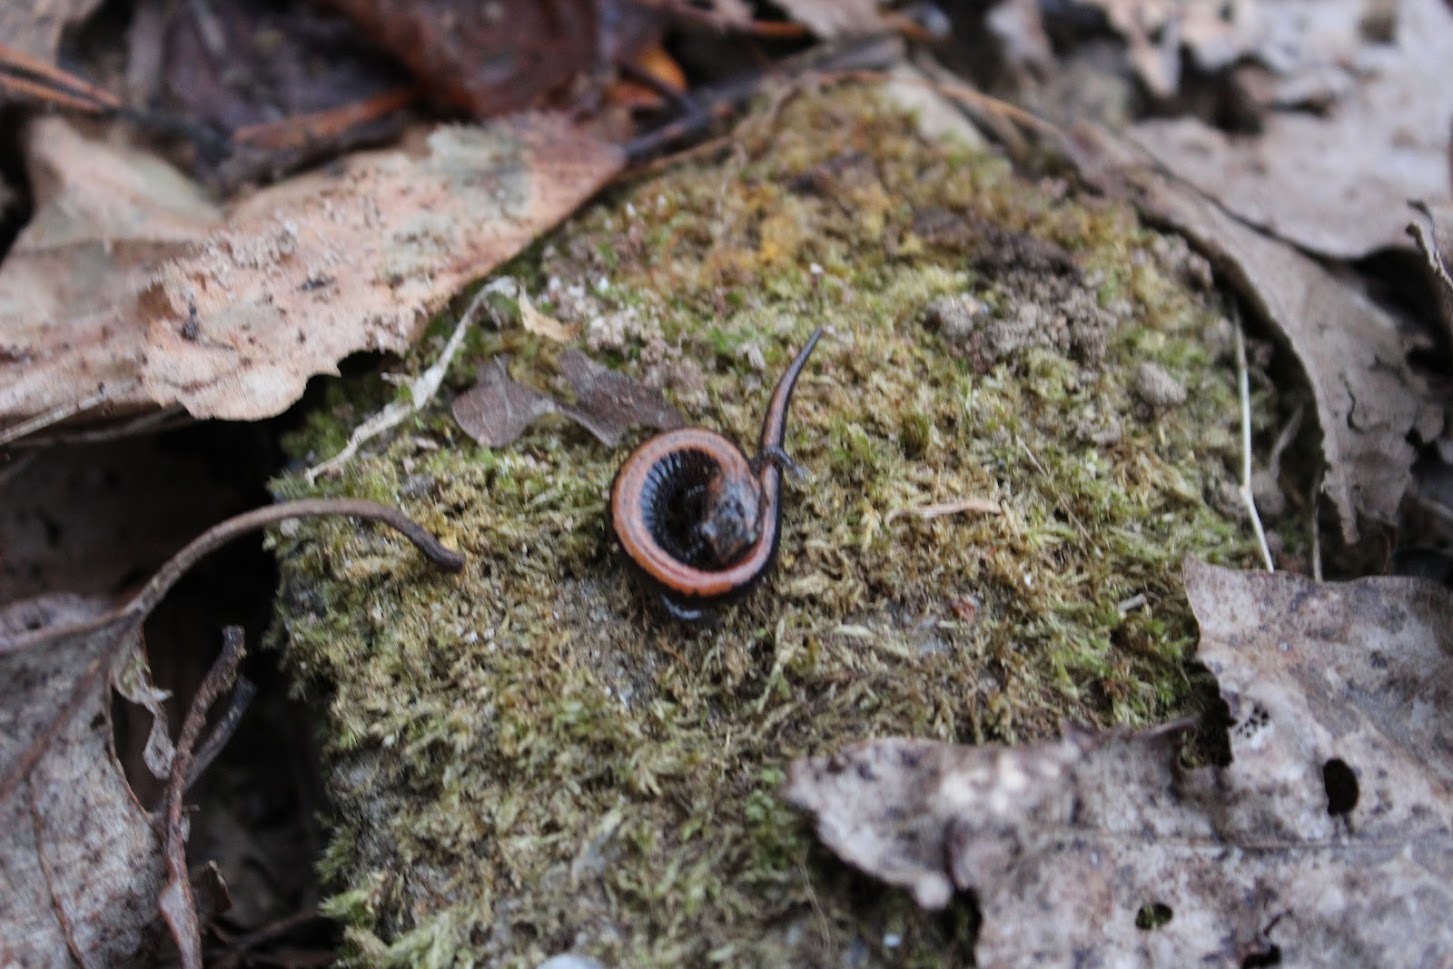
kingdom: Animalia
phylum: Chordata
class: Amphibia
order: Caudata
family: Plethodontidae
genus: Plethodon
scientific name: Plethodon cinereus
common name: Redback salamander
